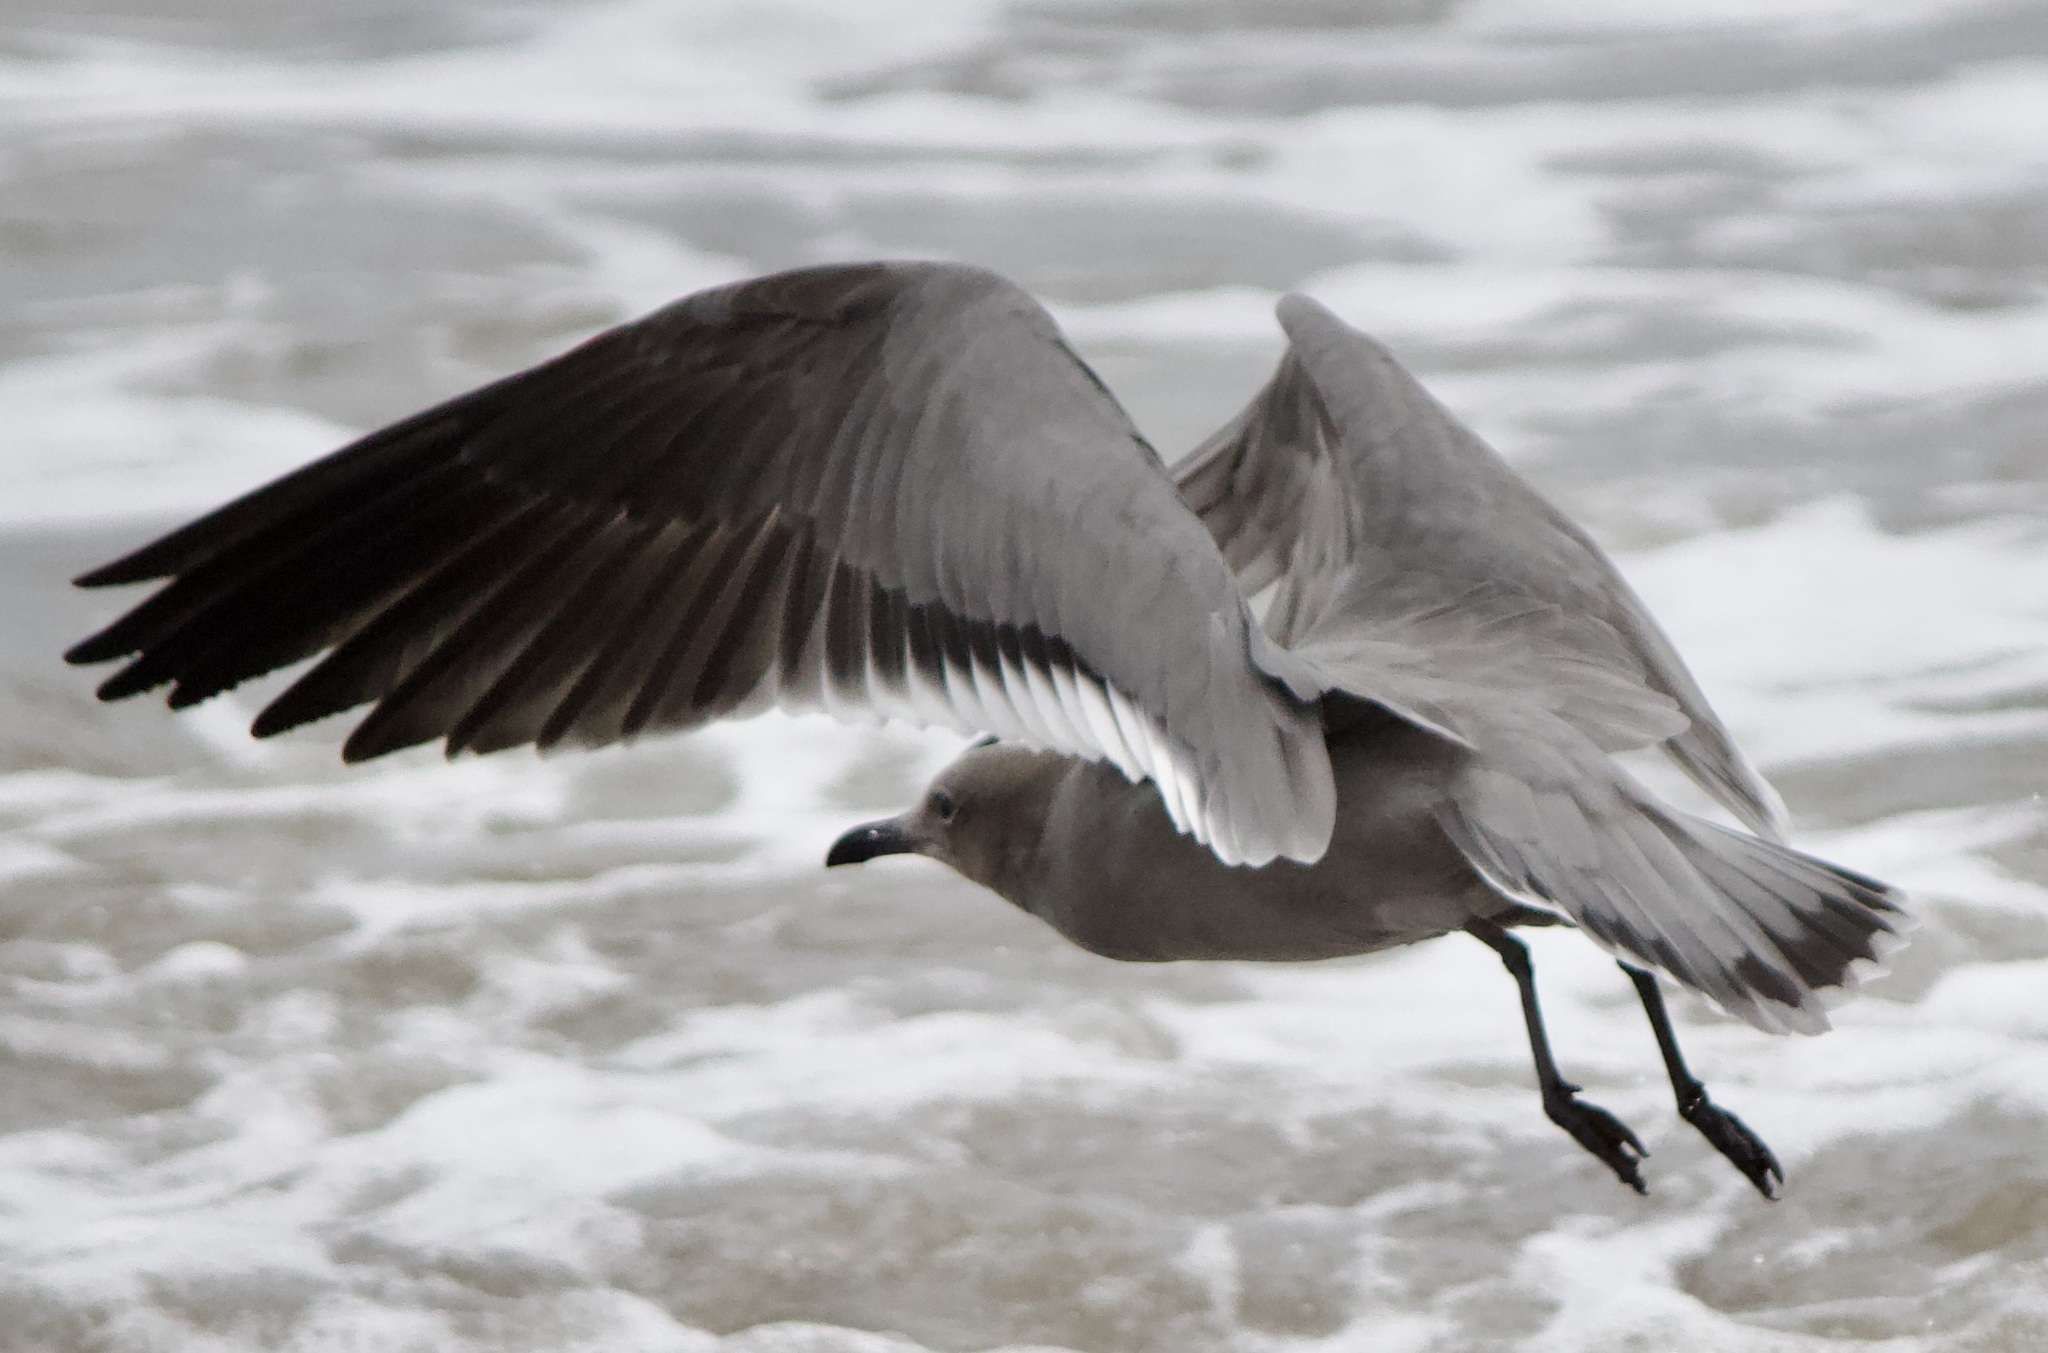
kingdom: Animalia
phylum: Chordata
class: Aves
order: Charadriiformes
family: Laridae
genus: Leucophaeus
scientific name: Leucophaeus modestus
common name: Gray gull
